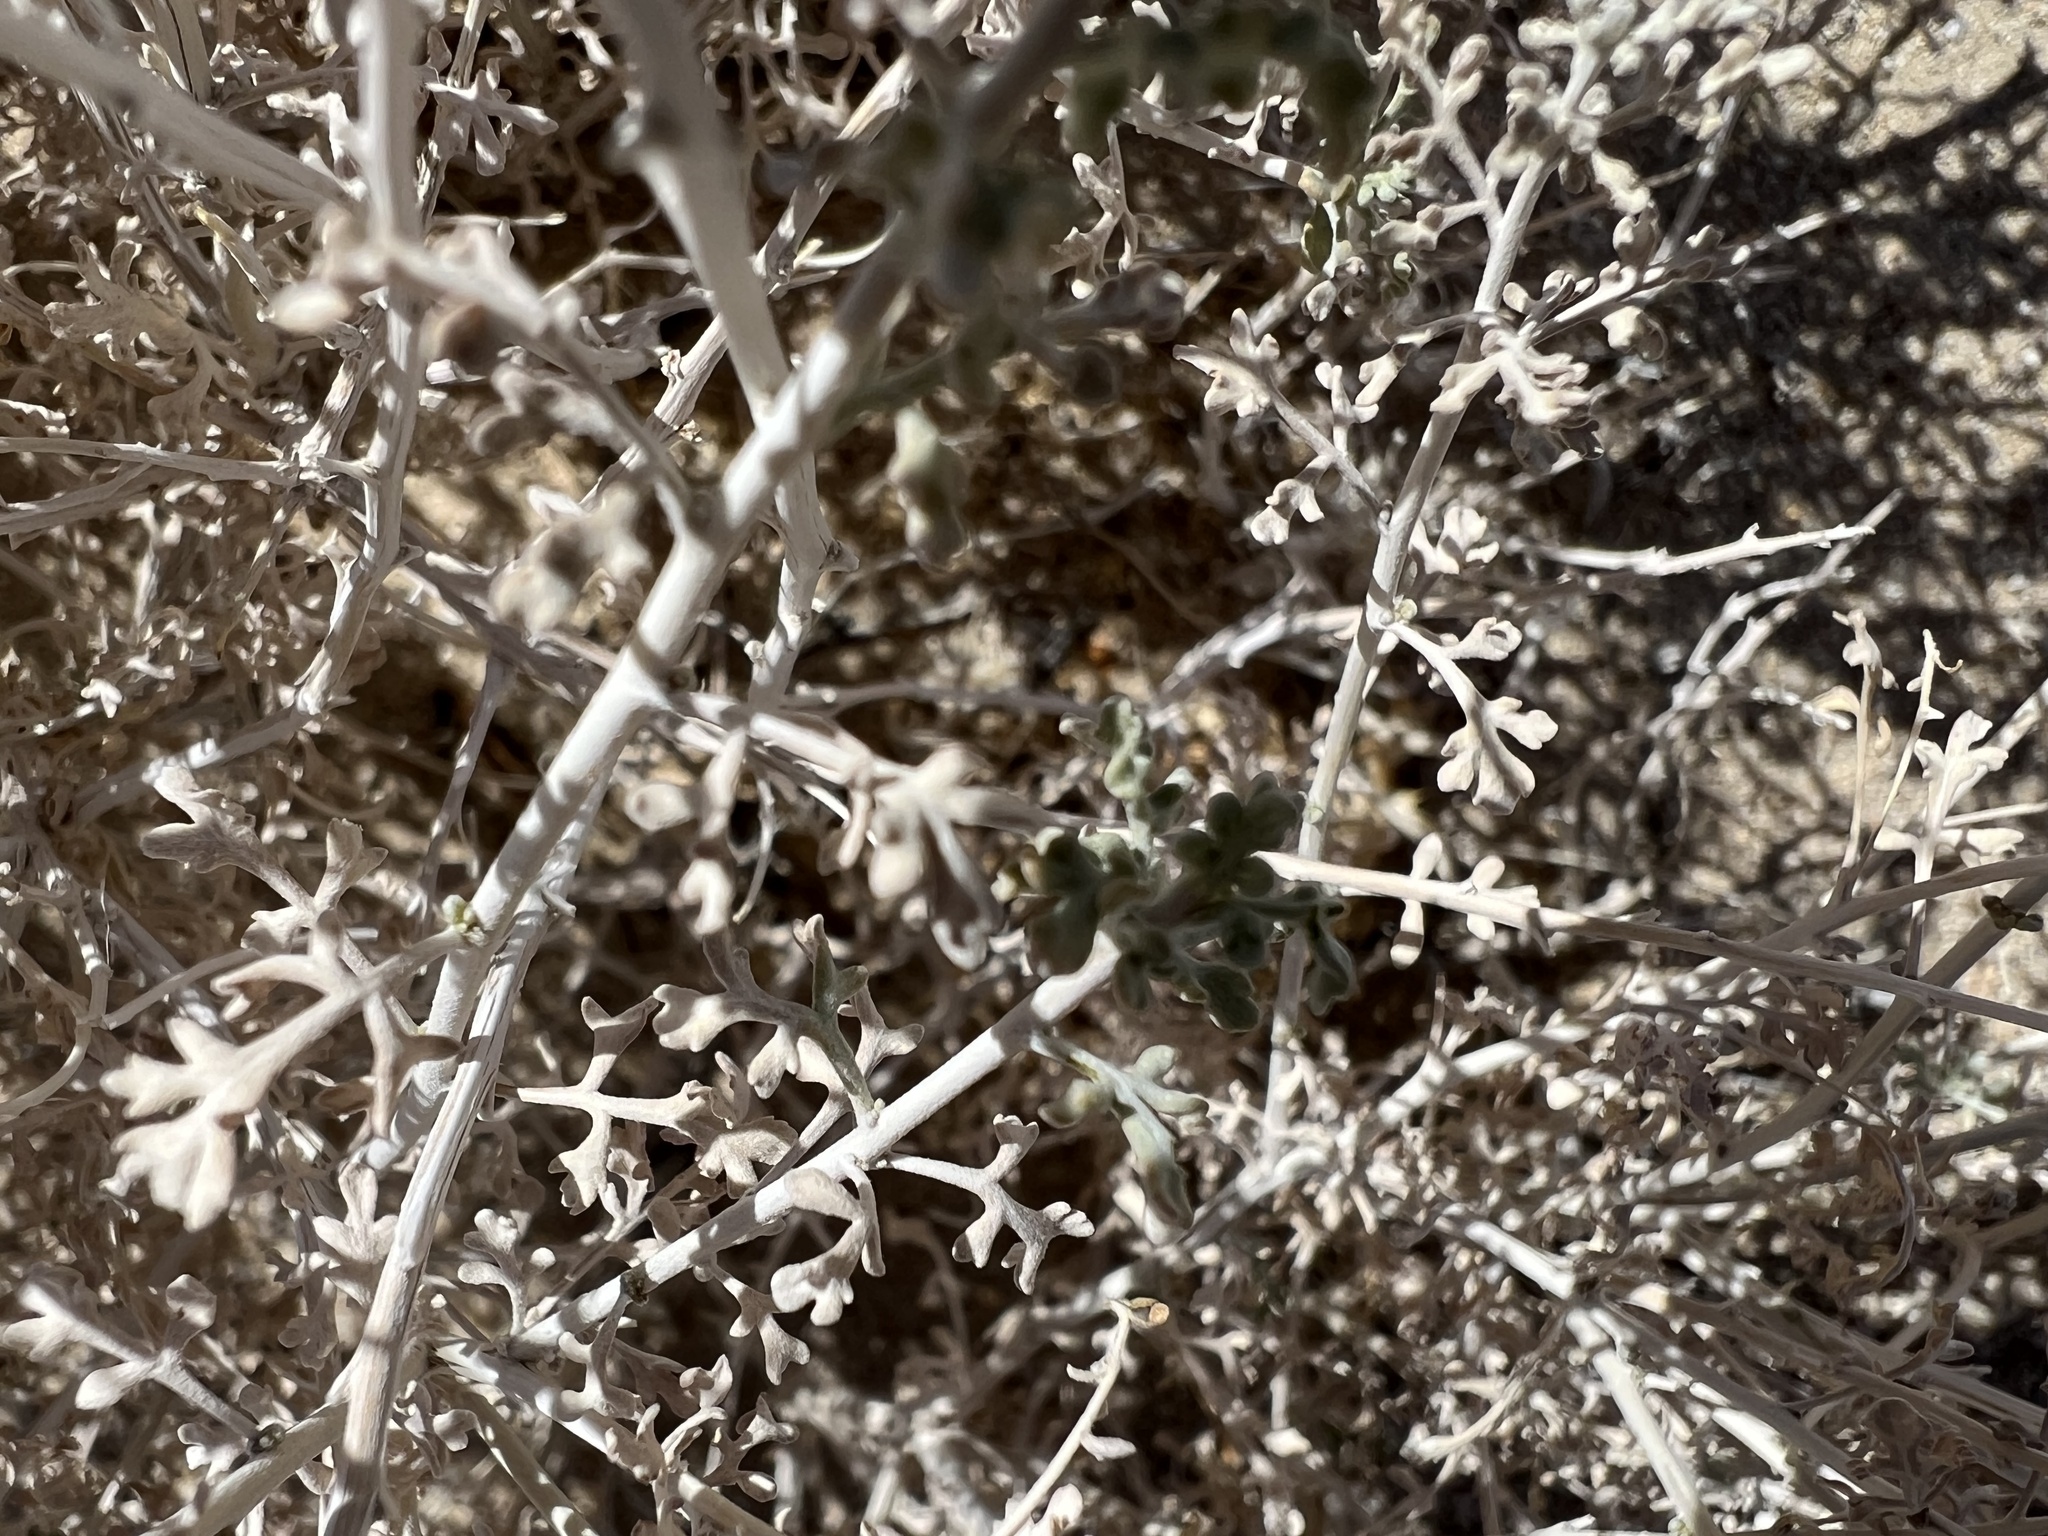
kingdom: Plantae
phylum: Tracheophyta
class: Magnoliopsida
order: Asterales
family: Asteraceae
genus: Ambrosia
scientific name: Ambrosia dumosa
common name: Bur-sage
